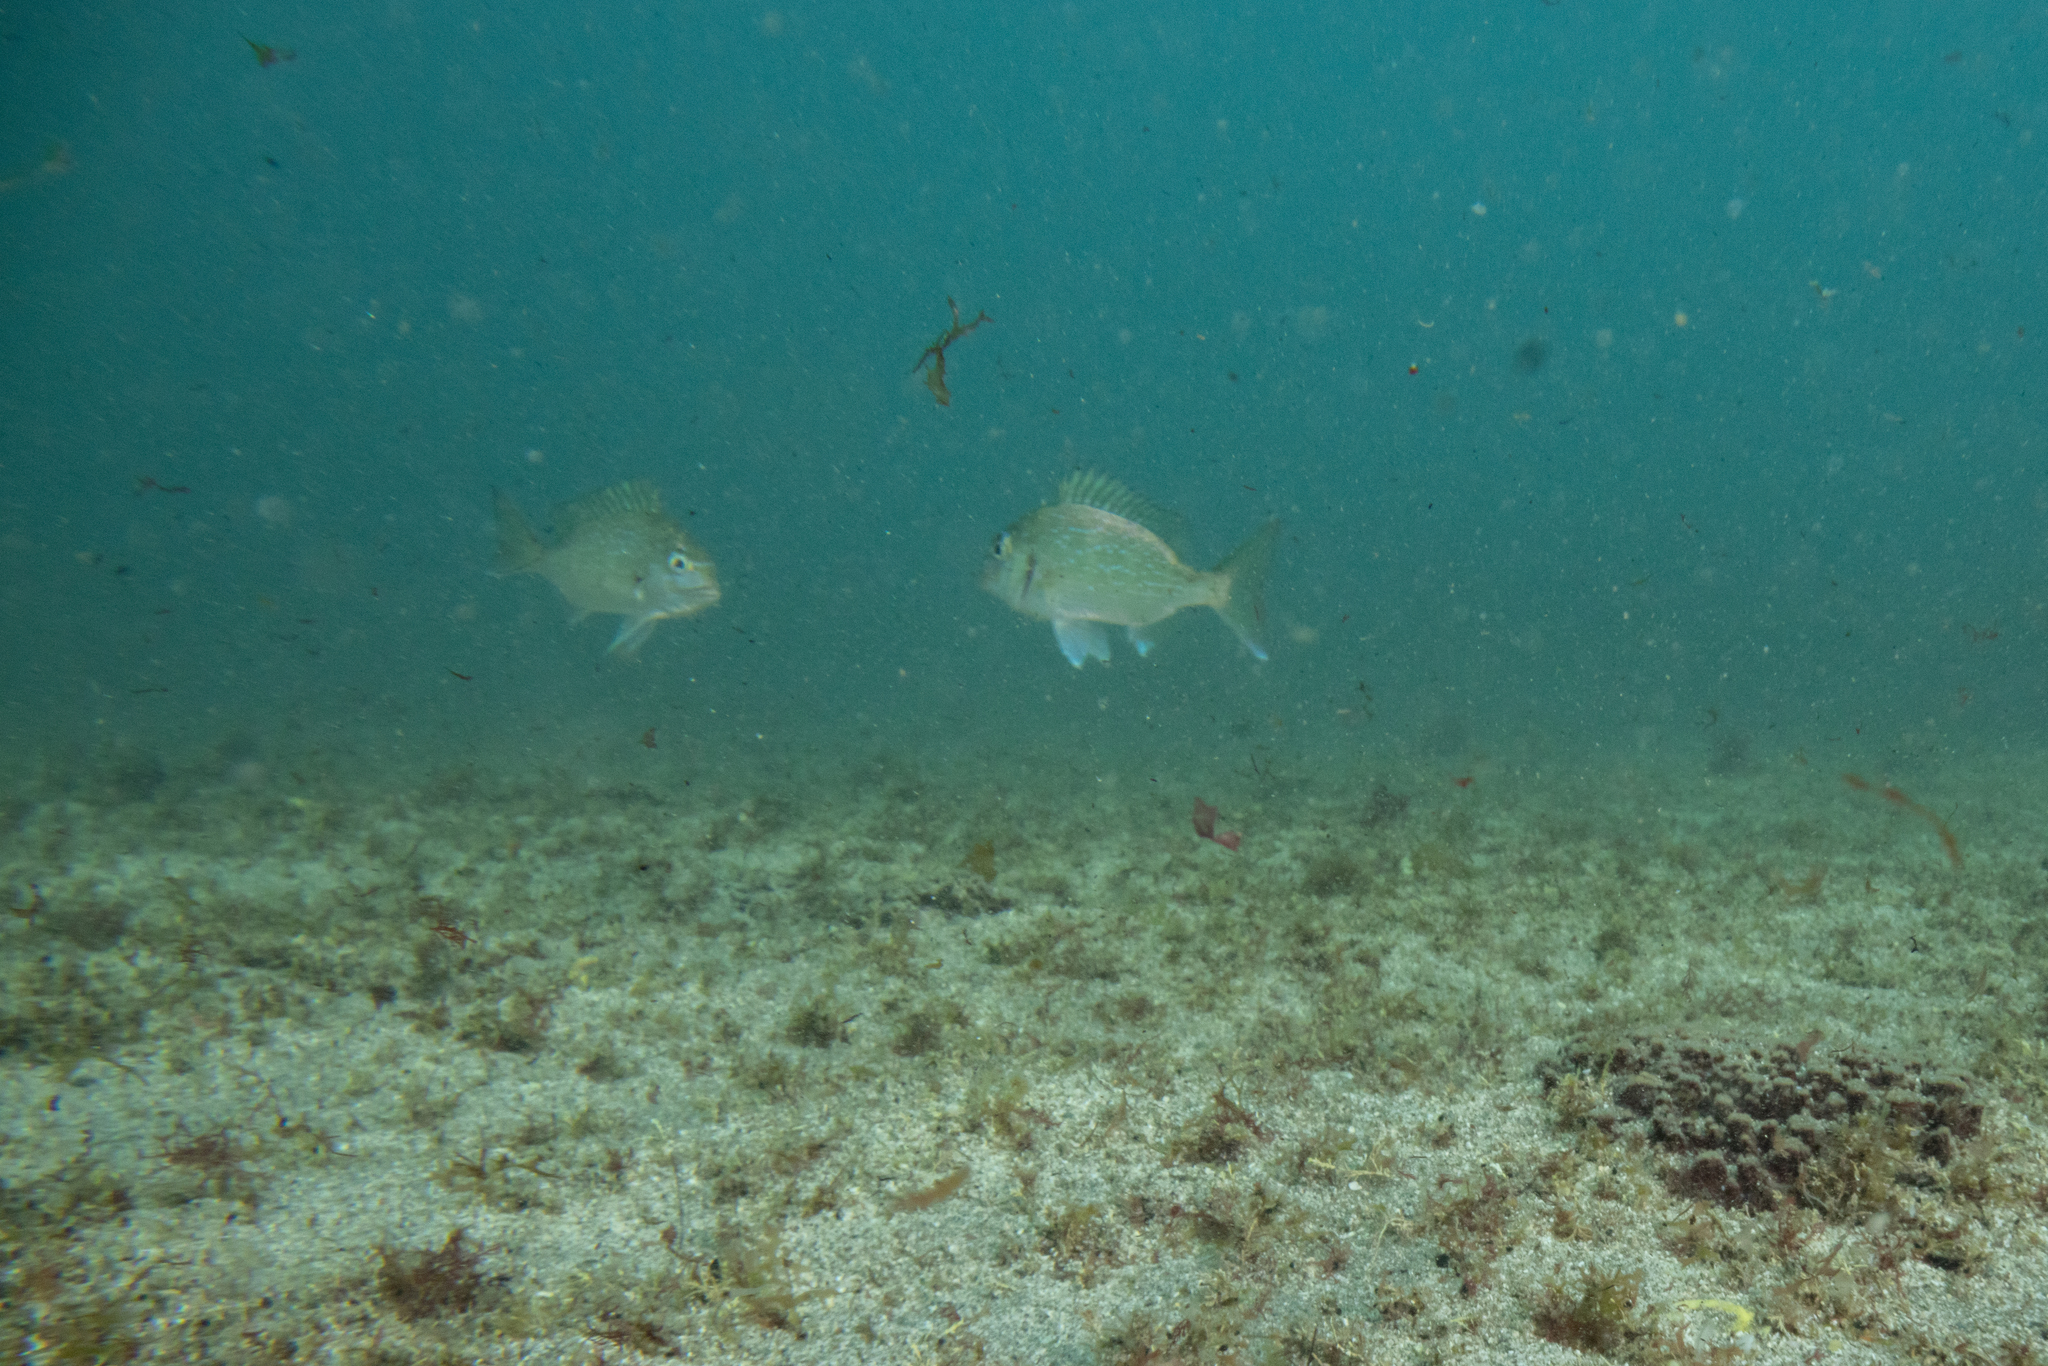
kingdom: Animalia
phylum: Chordata
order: Perciformes
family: Sparidae
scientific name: Sparidae
